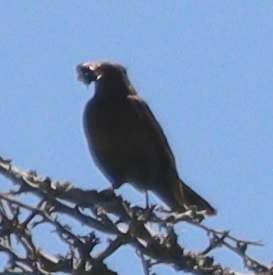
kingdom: Animalia
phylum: Chordata
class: Aves
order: Passeriformes
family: Turdidae
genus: Turdus
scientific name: Turdus merula
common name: Common blackbird
